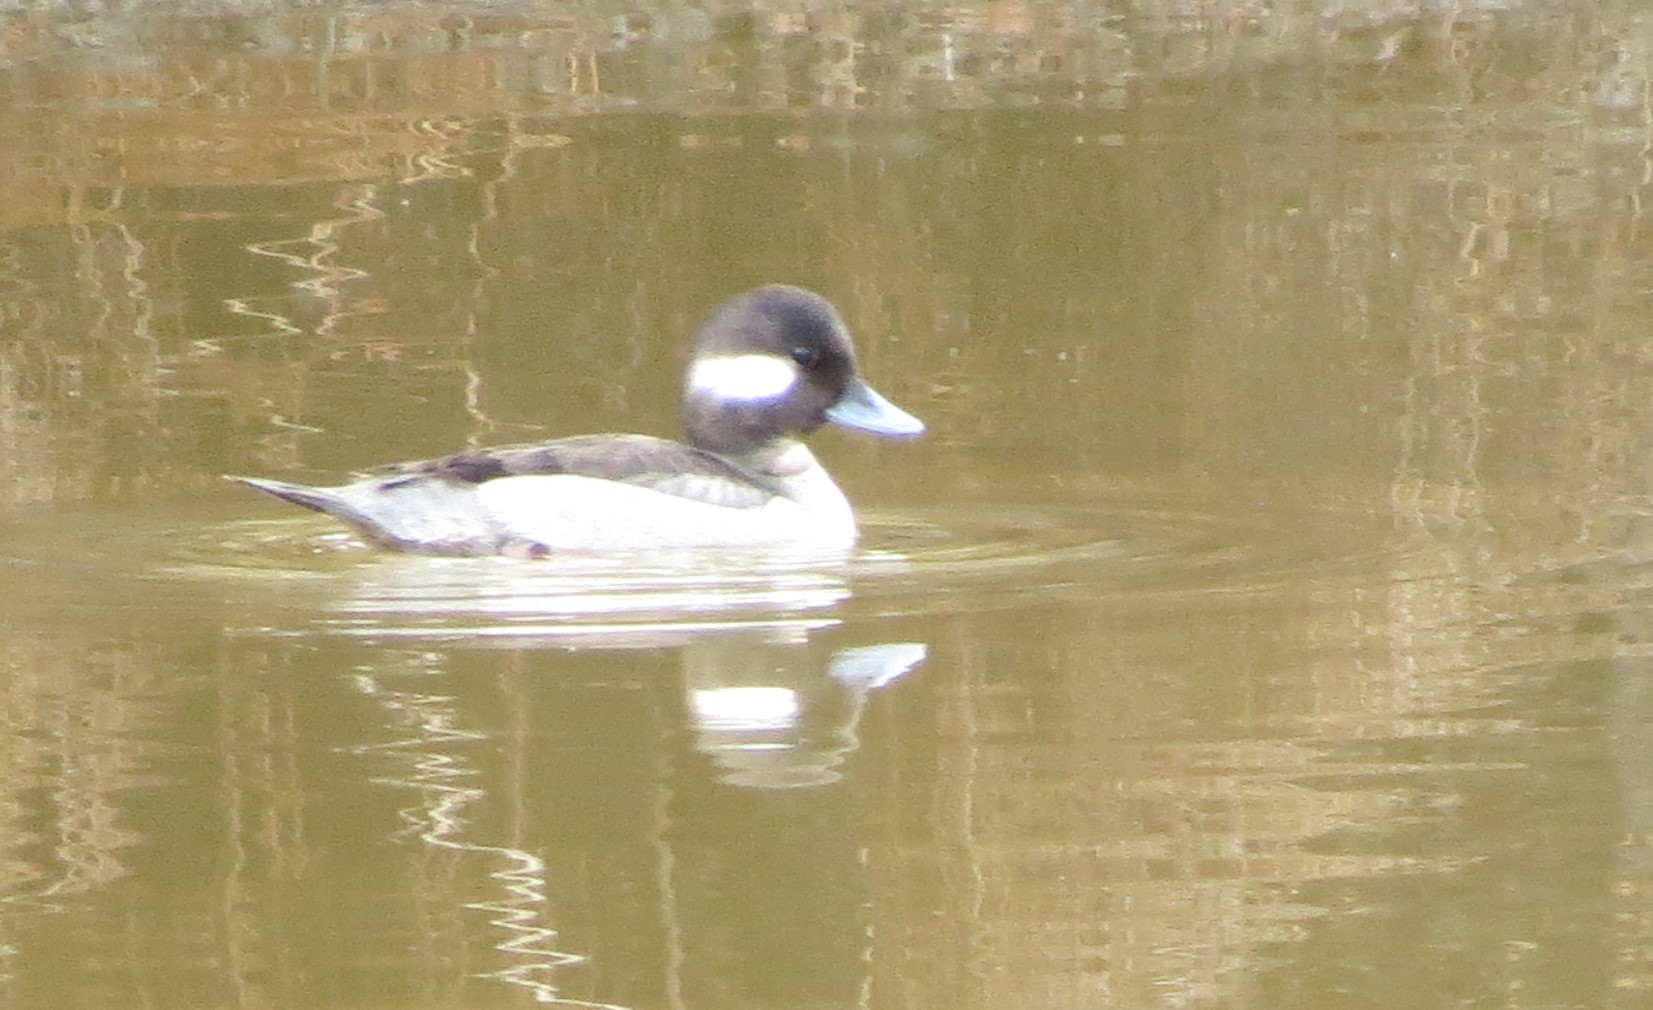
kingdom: Animalia
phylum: Chordata
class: Aves
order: Anseriformes
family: Anatidae
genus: Bucephala
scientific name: Bucephala albeola
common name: Bufflehead
